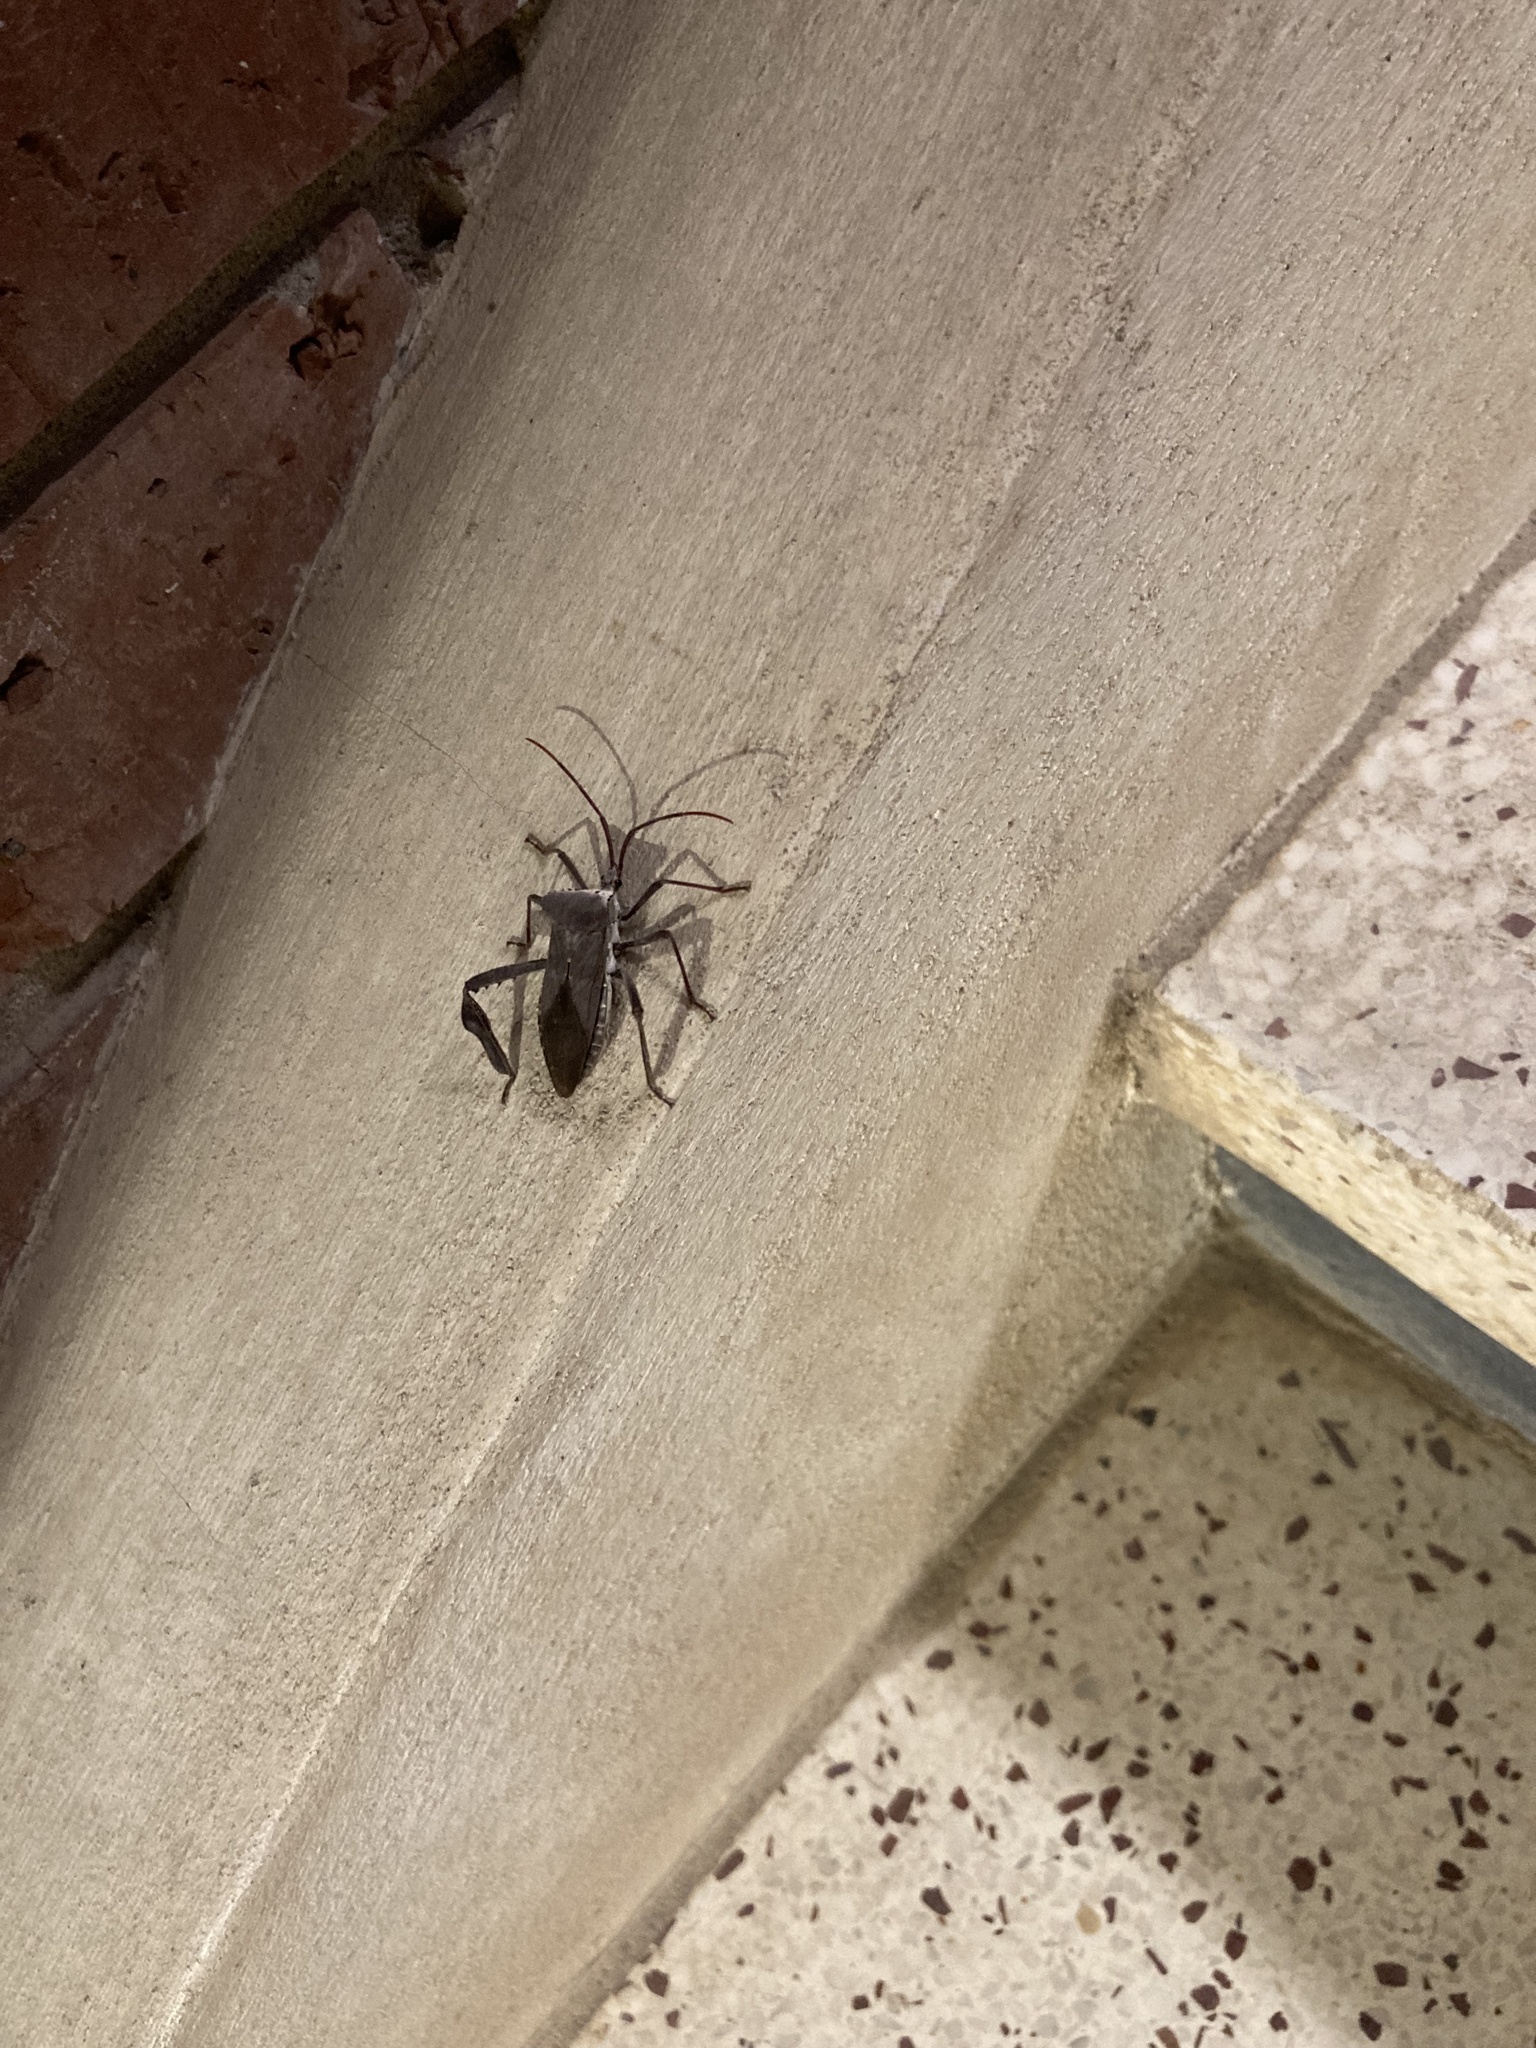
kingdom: Animalia
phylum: Arthropoda
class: Insecta
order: Hemiptera
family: Coreidae
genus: Acanthocephala
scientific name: Acanthocephala declivis
